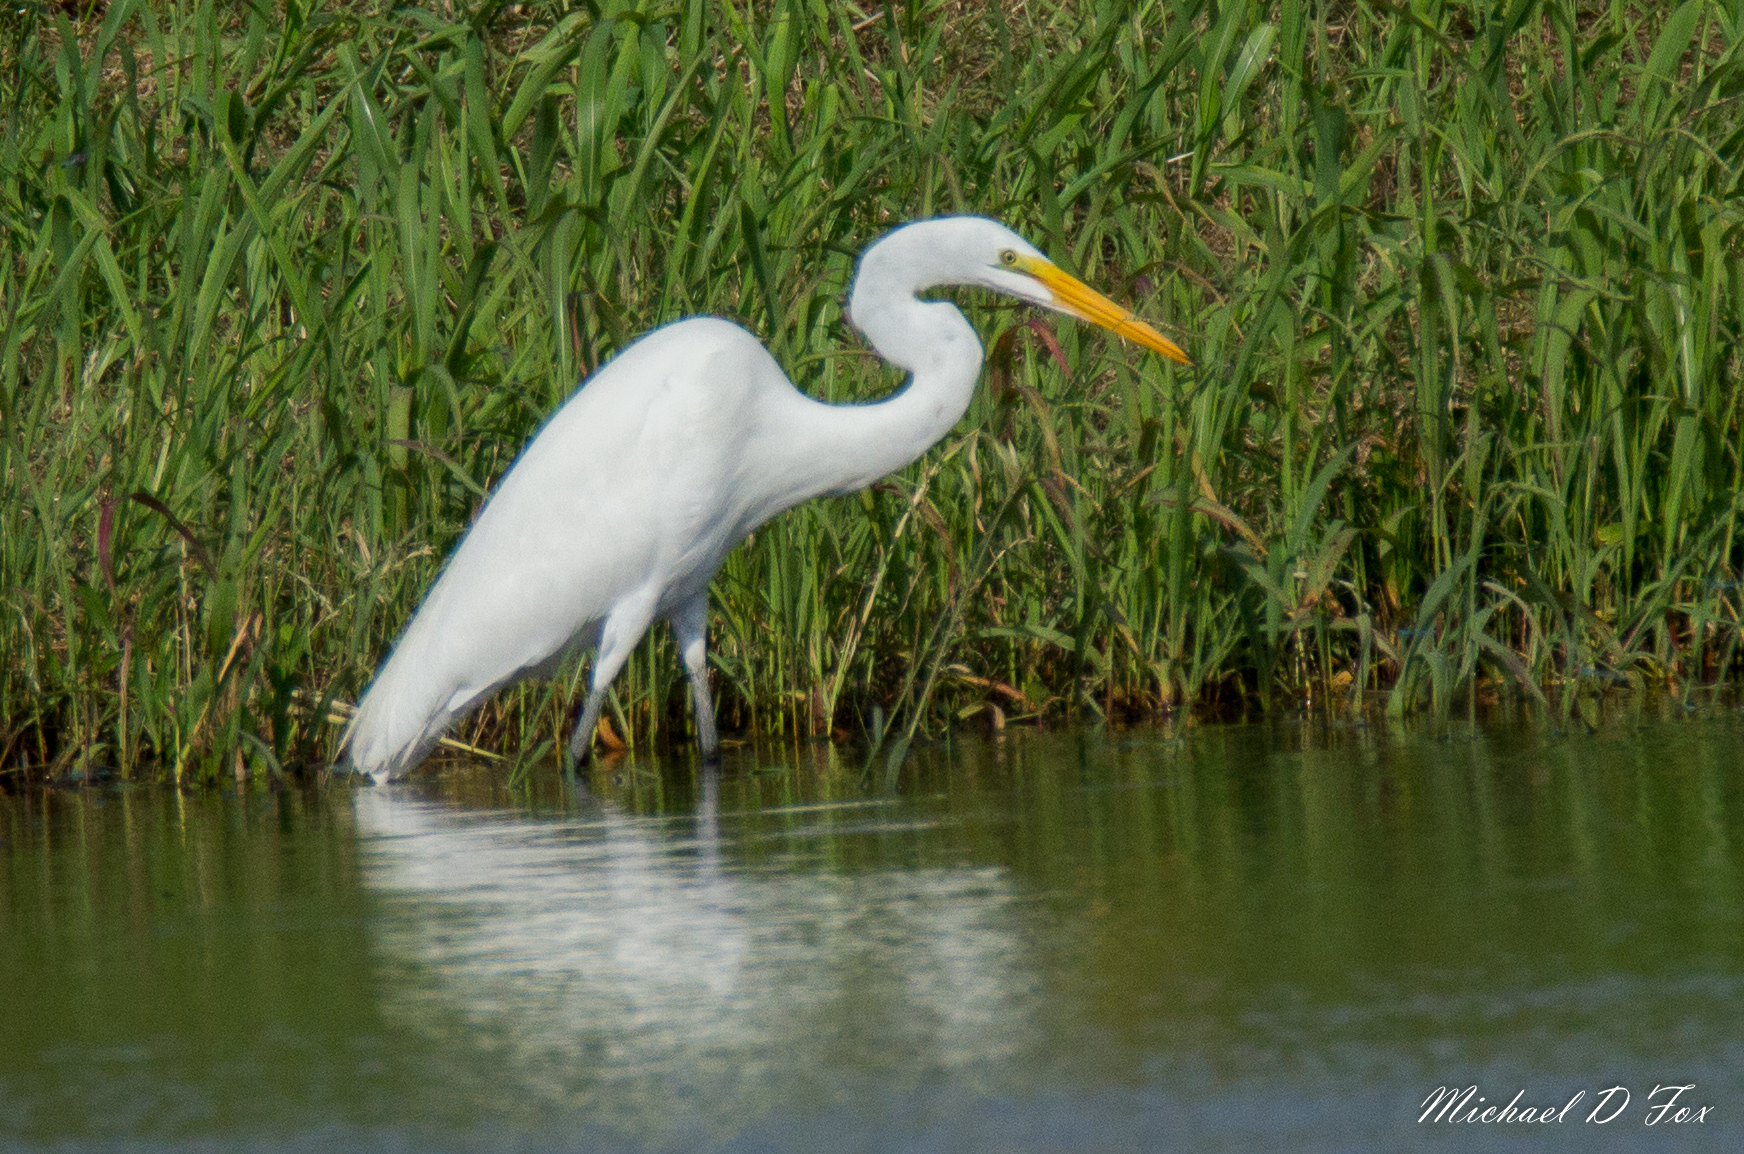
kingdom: Animalia
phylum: Chordata
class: Aves
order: Pelecaniformes
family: Ardeidae
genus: Ardea
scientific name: Ardea alba
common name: Great egret
